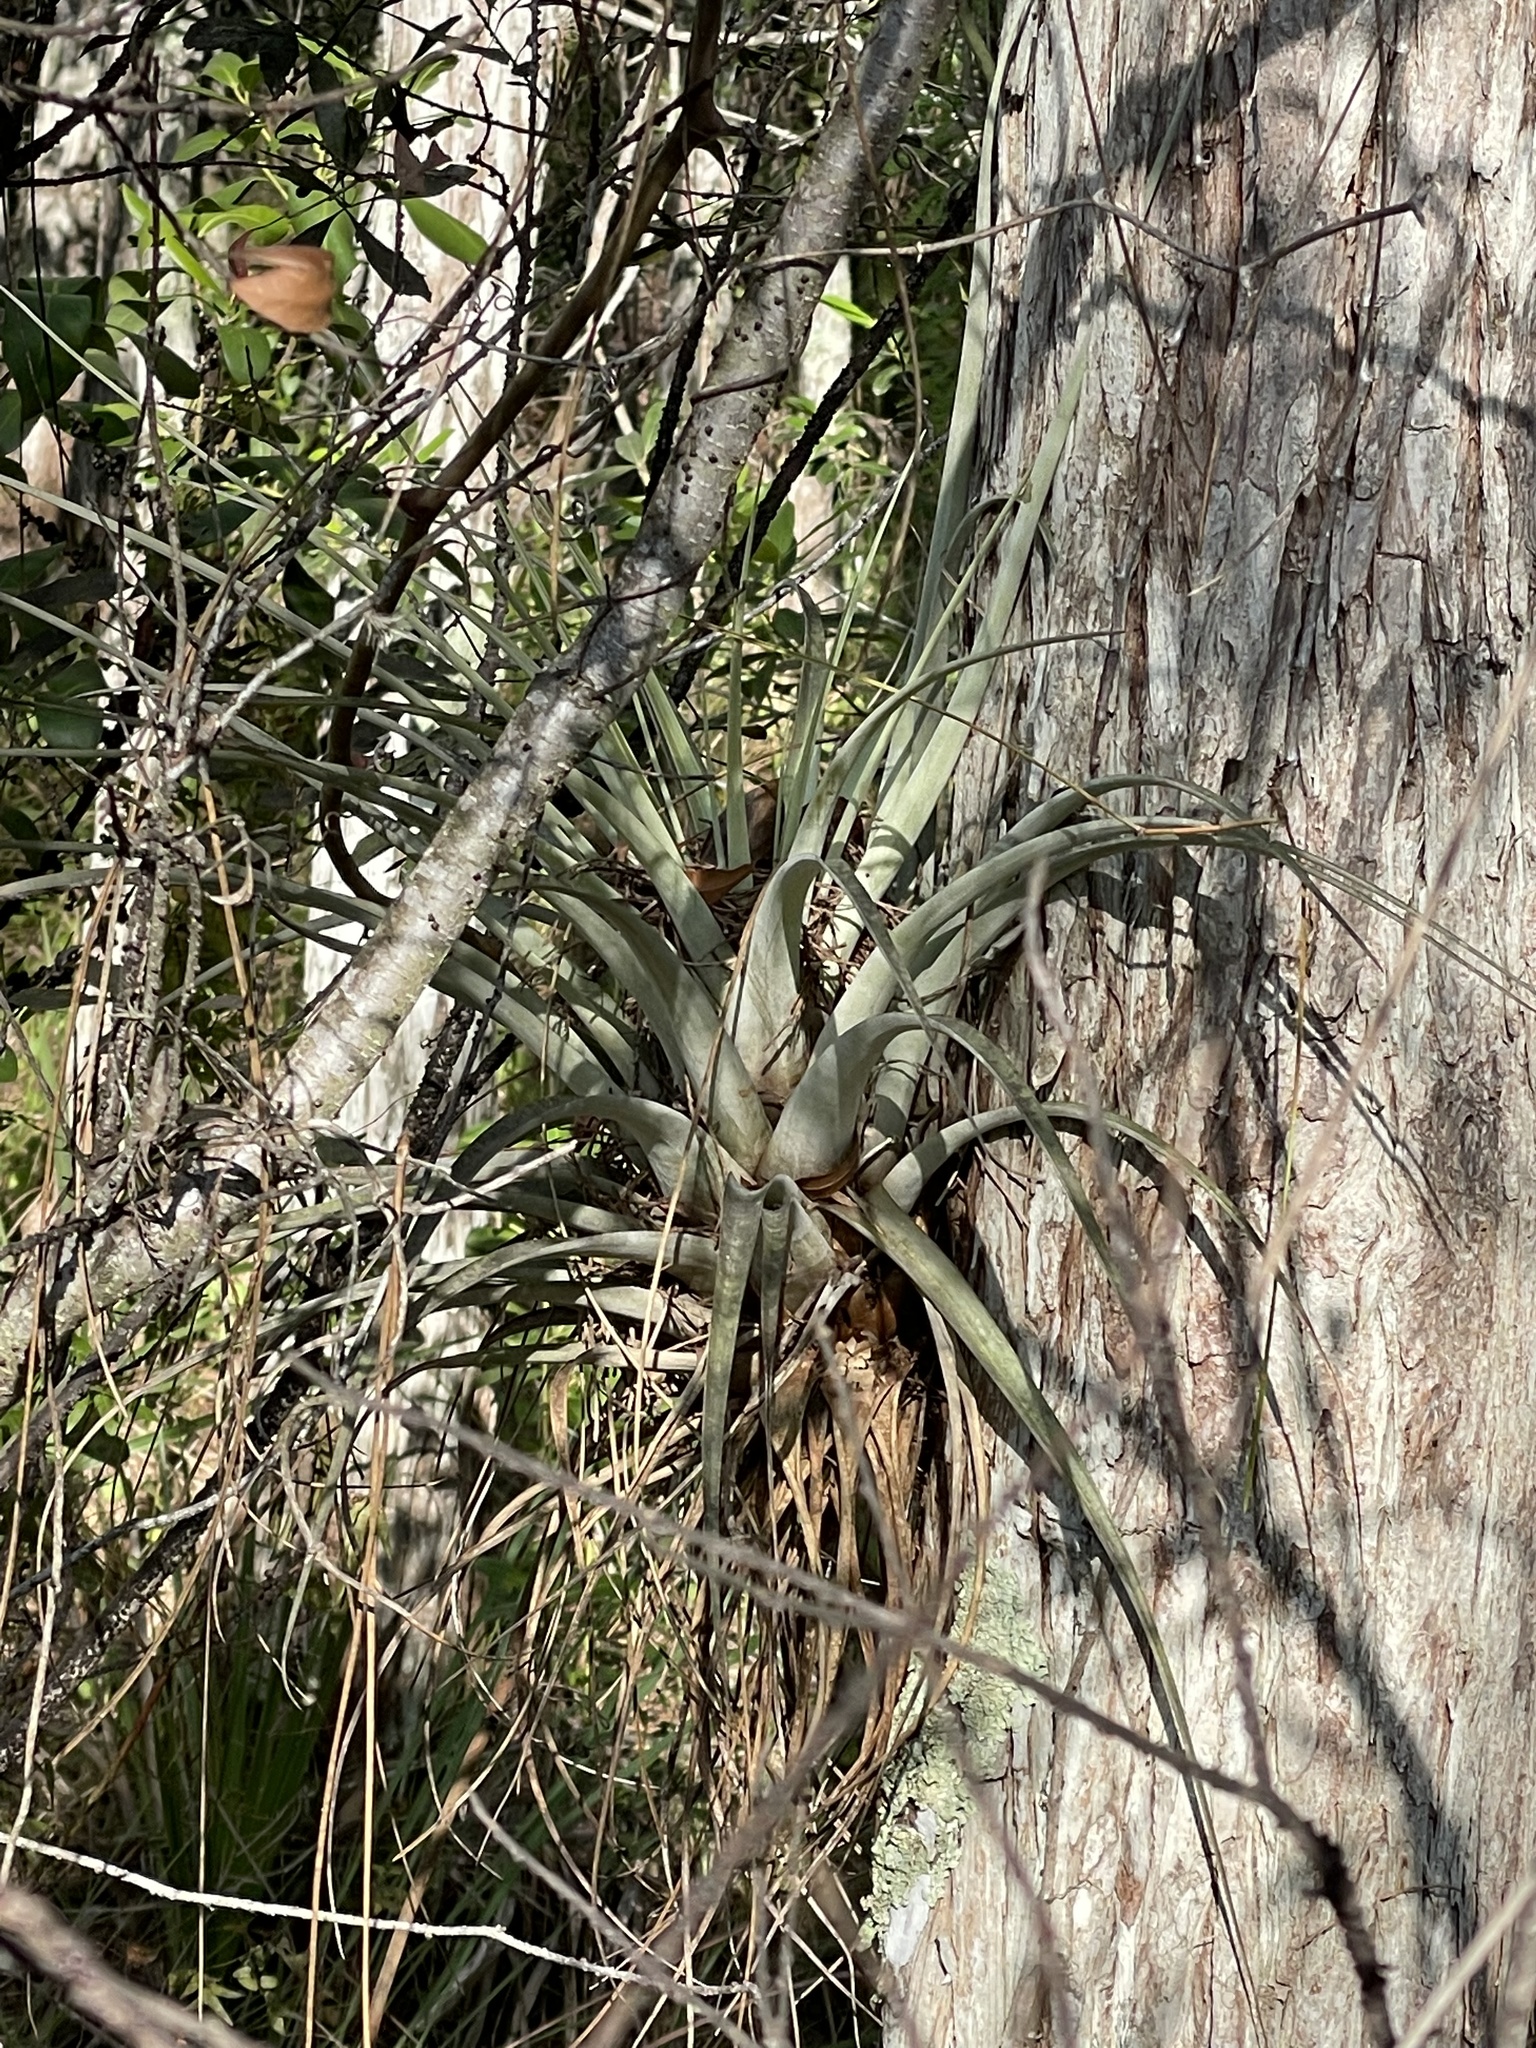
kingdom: Plantae
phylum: Tracheophyta
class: Liliopsida
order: Poales
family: Bromeliaceae
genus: Tillandsia
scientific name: Tillandsia utriculata
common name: Wild pine
